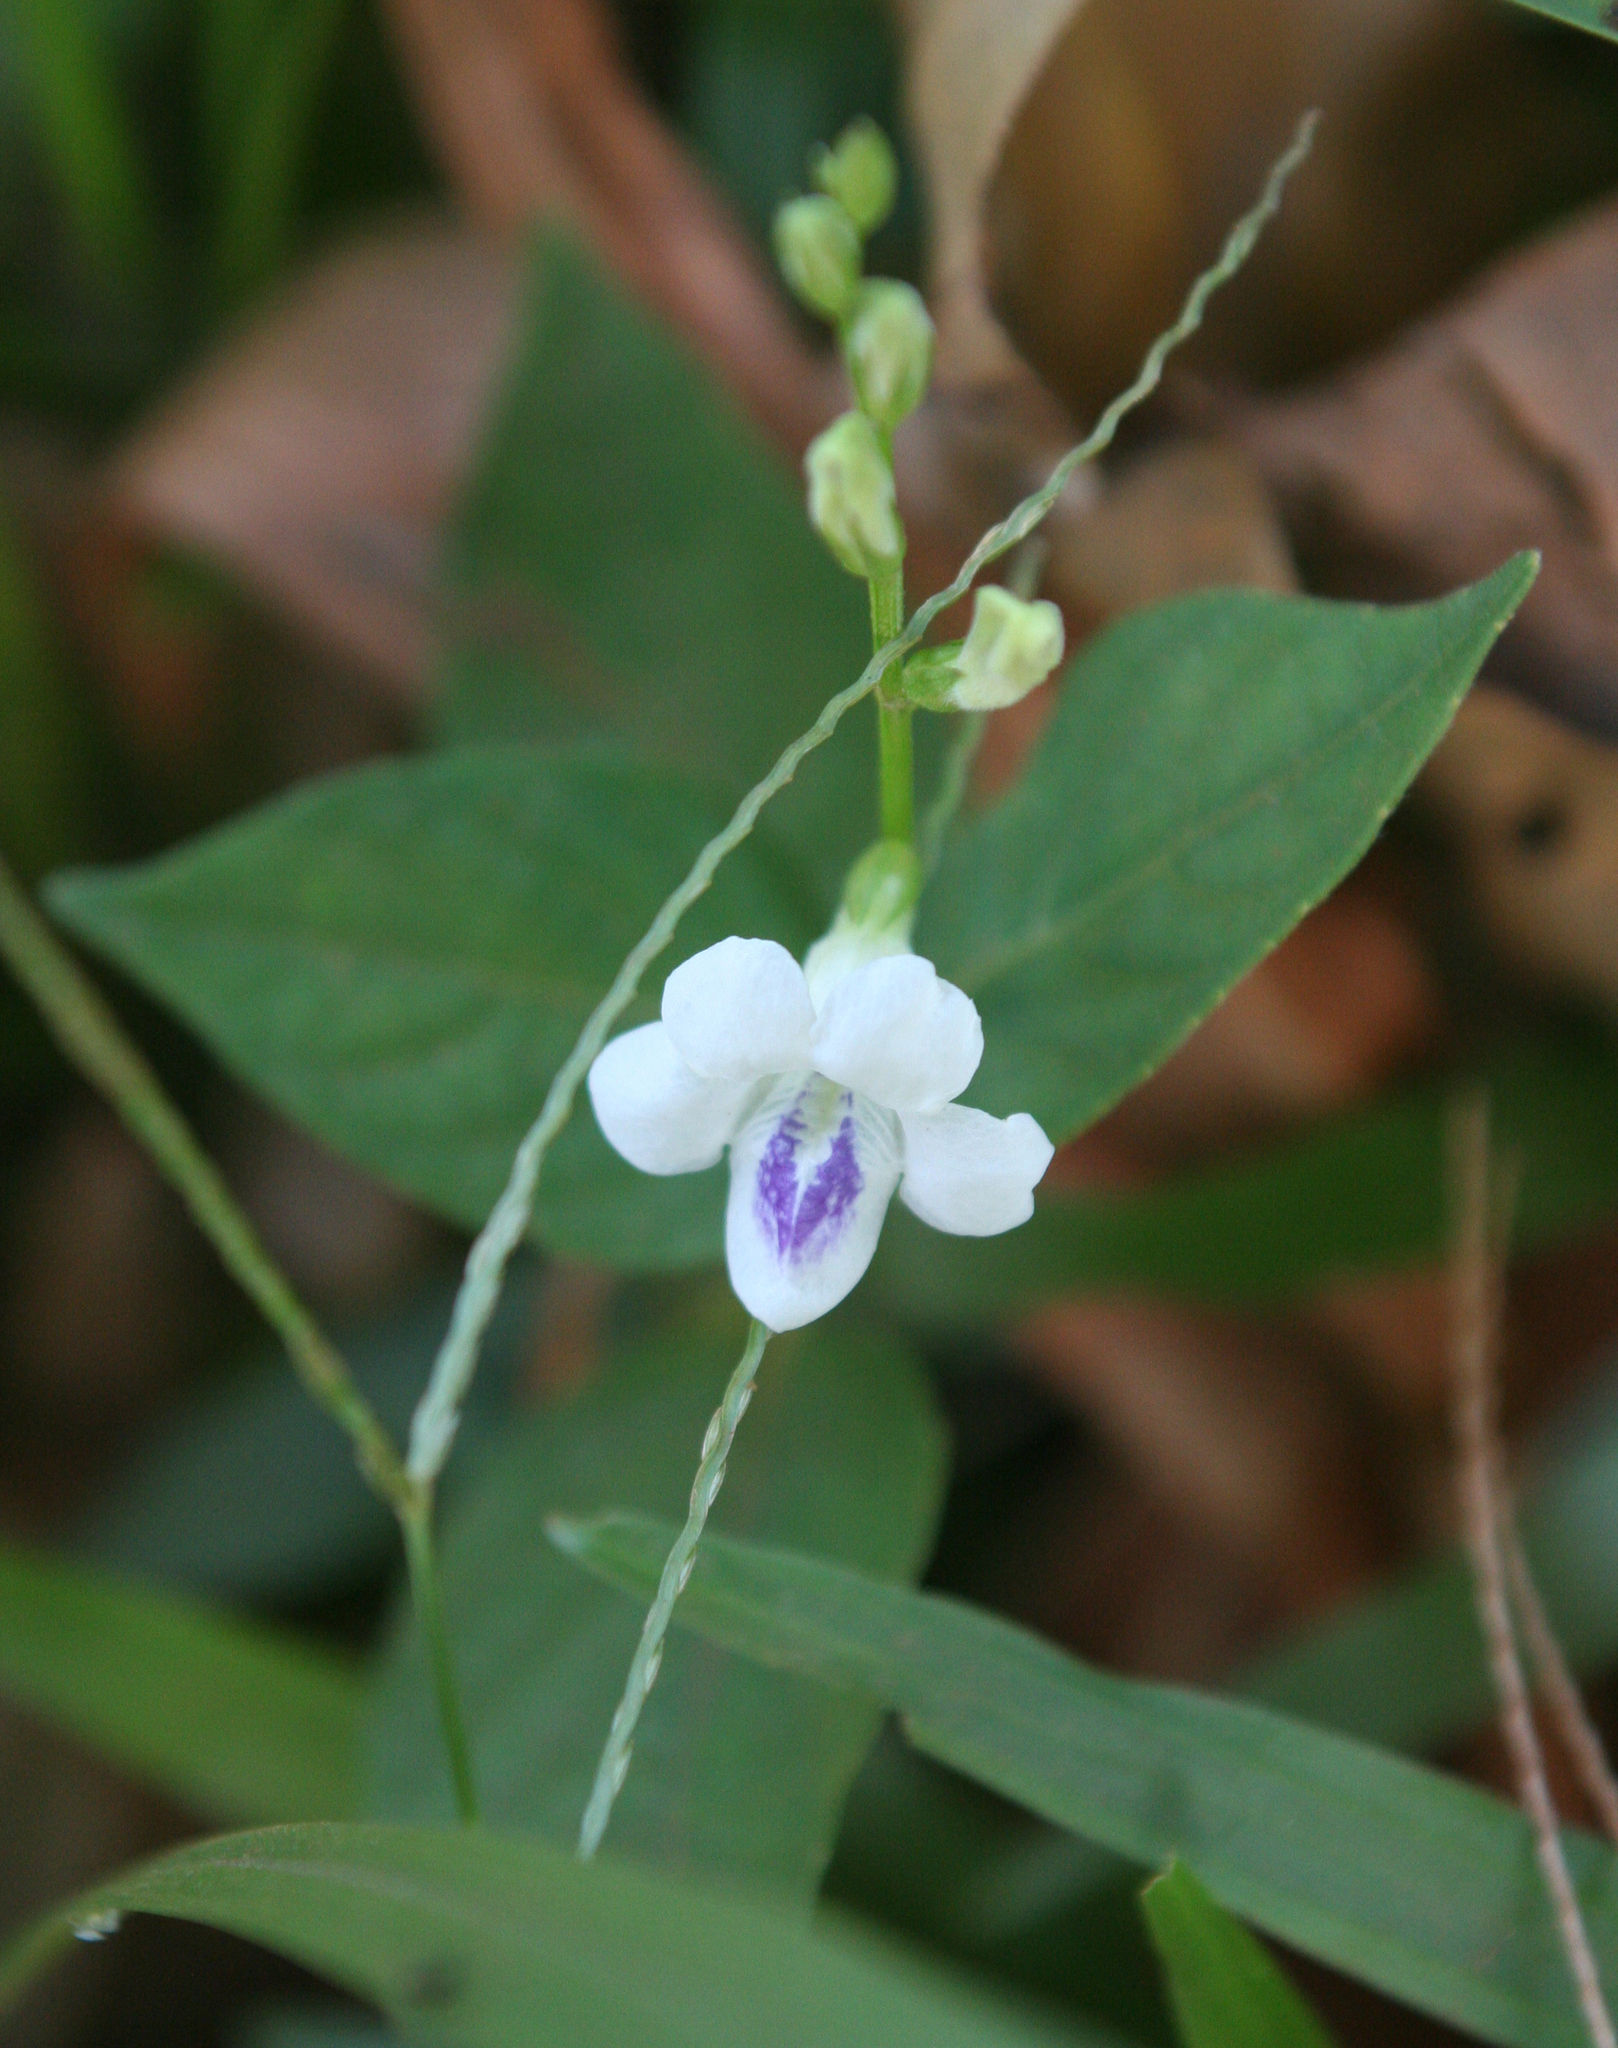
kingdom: Plantae
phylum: Tracheophyta
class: Magnoliopsida
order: Lamiales
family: Acanthaceae
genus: Asystasia
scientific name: Asystasia intrusa
